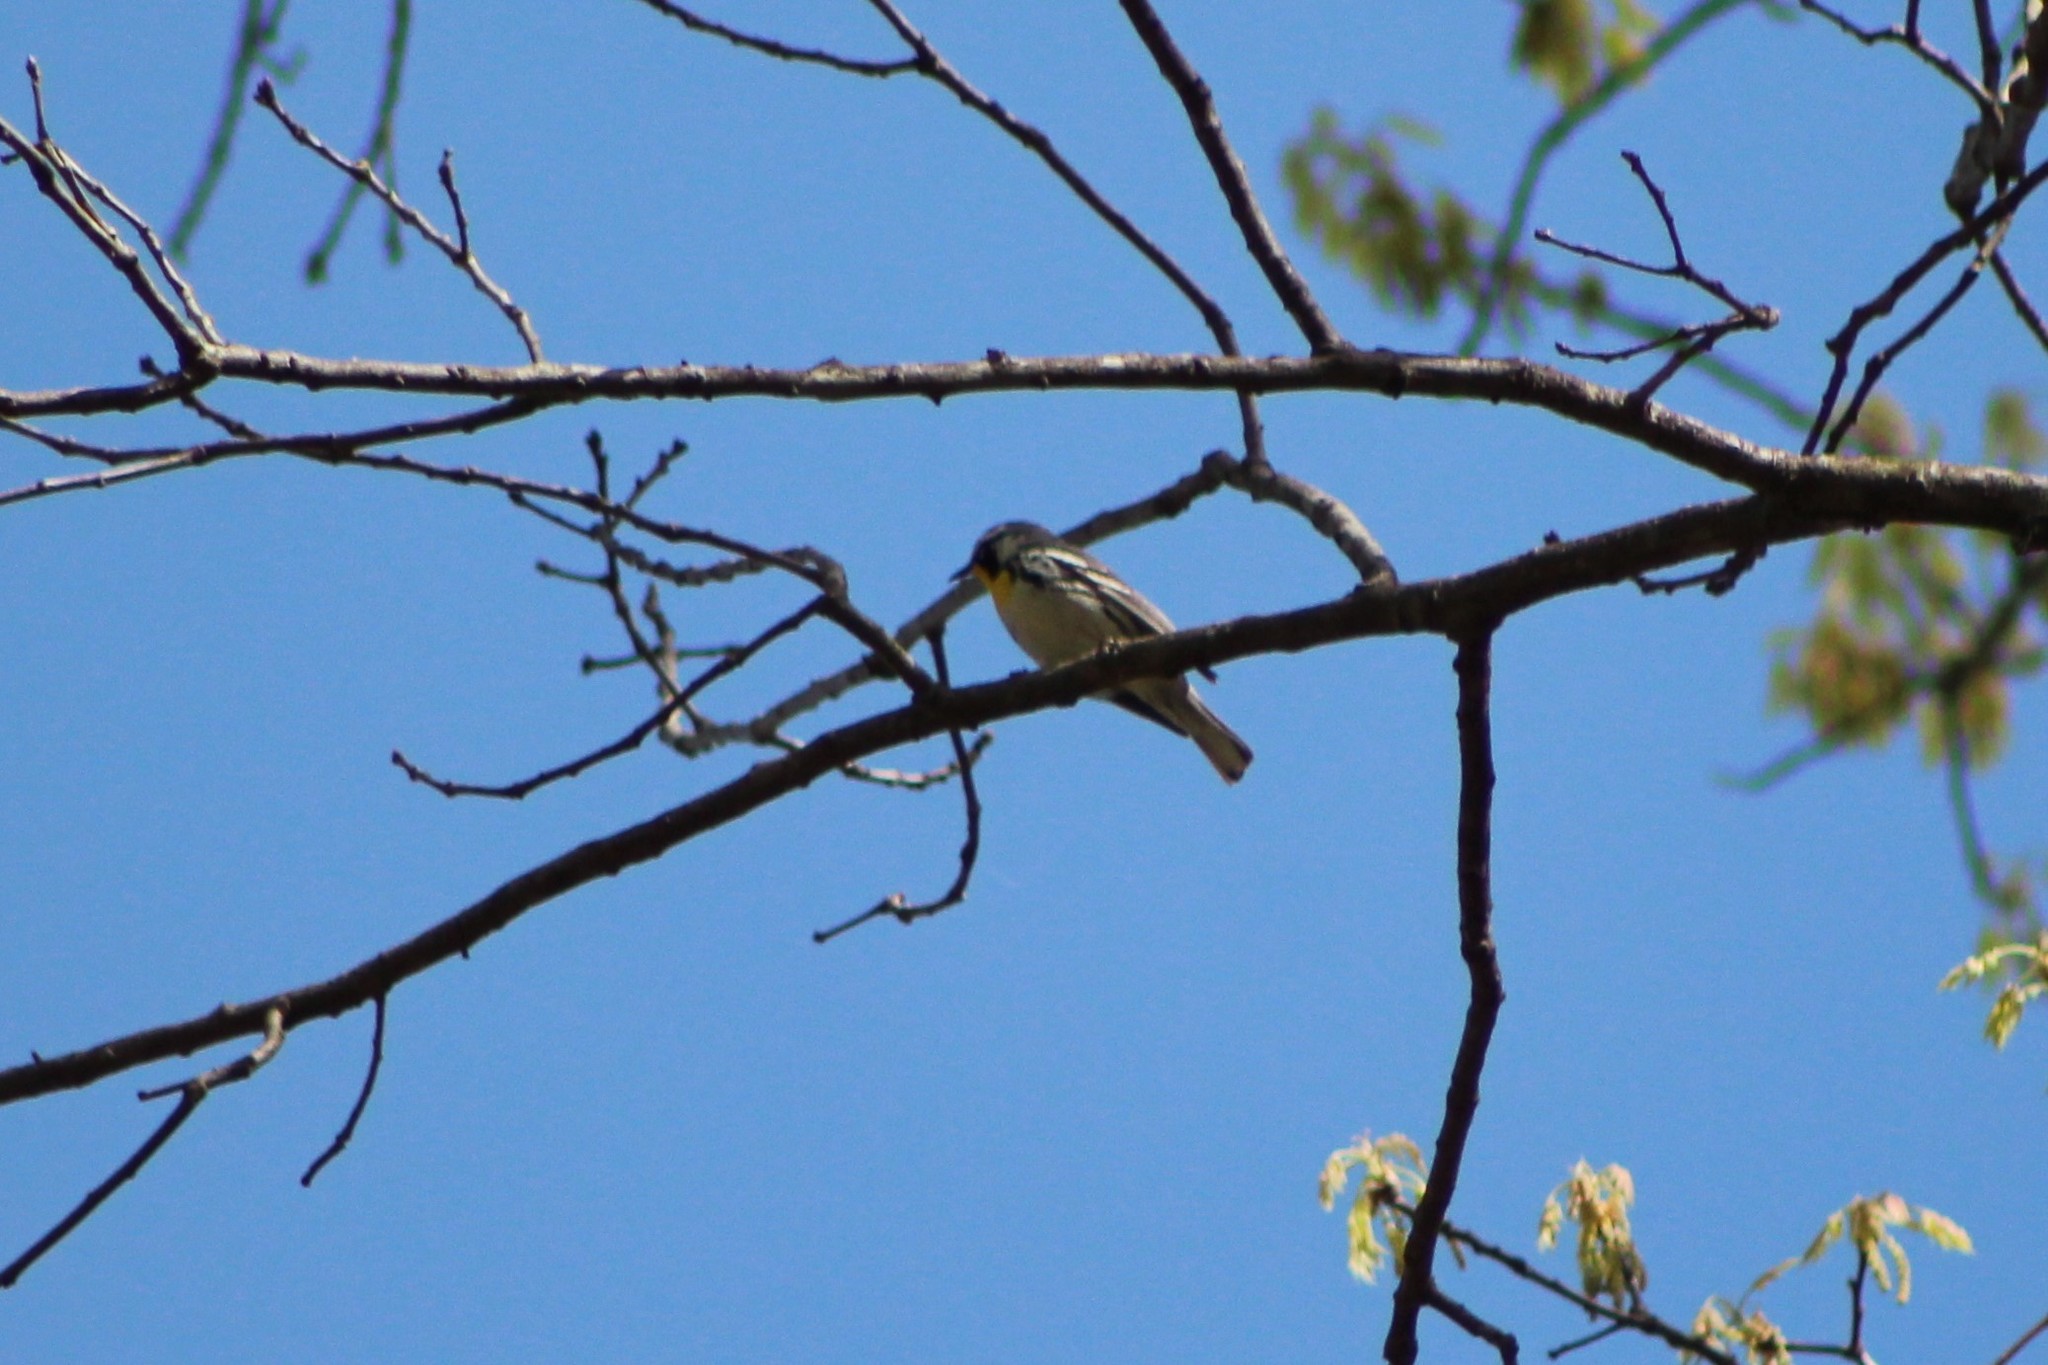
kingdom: Animalia
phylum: Chordata
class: Aves
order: Passeriformes
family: Parulidae
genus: Setophaga
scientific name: Setophaga dominica
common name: Yellow-throated warbler
